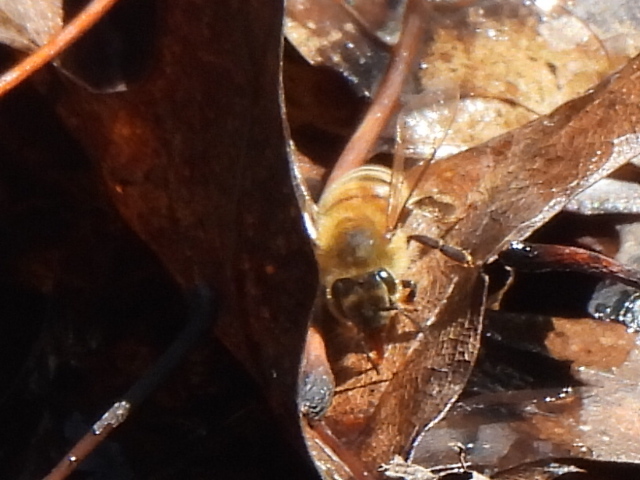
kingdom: Animalia
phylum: Arthropoda
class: Insecta
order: Hymenoptera
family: Apidae
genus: Apis
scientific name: Apis mellifera
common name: Honey bee
